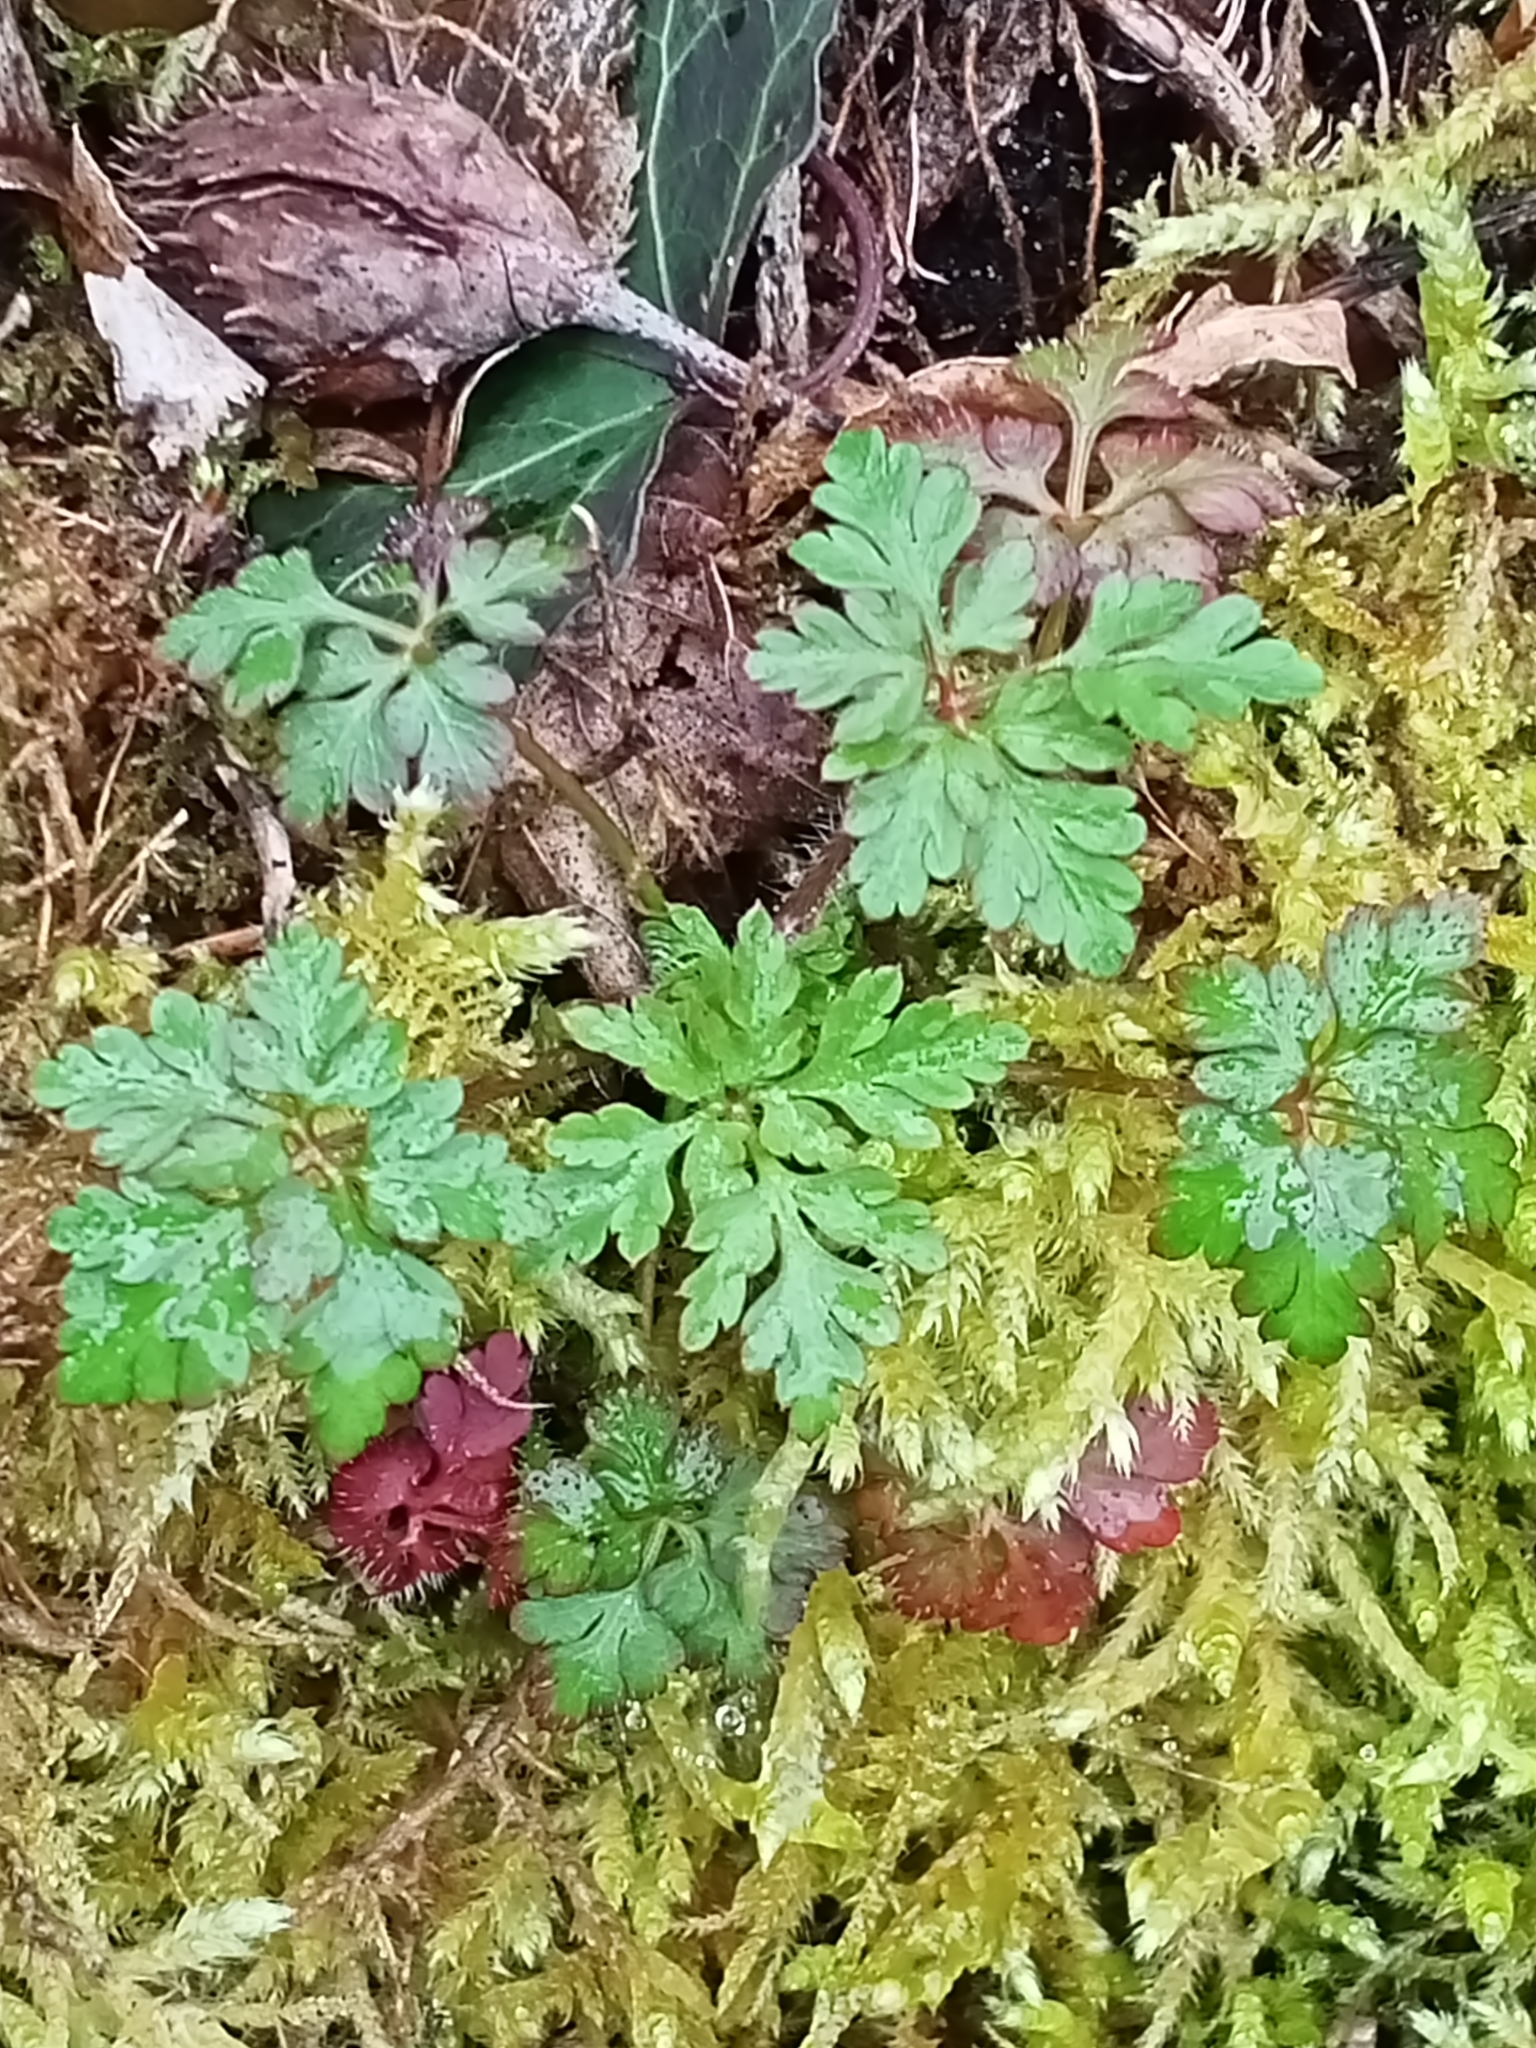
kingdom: Plantae
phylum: Tracheophyta
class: Magnoliopsida
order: Geraniales
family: Geraniaceae
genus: Geranium
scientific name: Geranium robertianum
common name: Herb-robert
